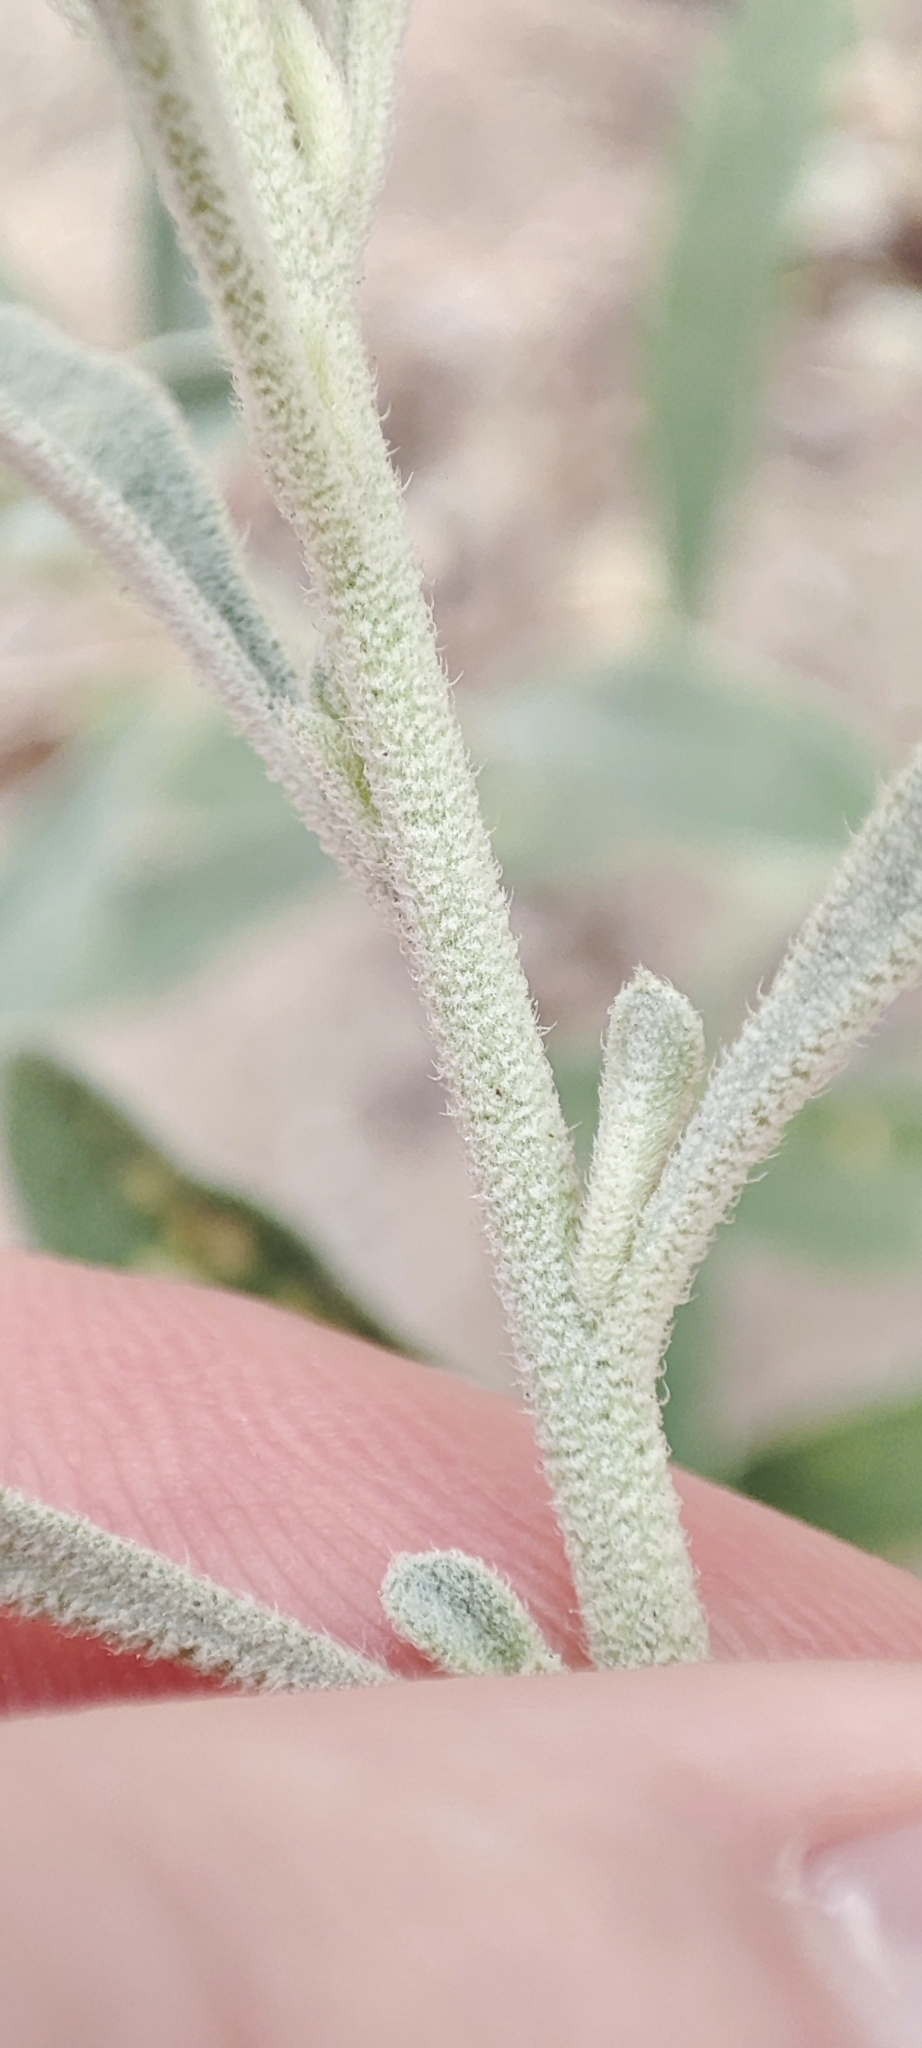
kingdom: Plantae
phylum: Tracheophyta
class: Magnoliopsida
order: Caryophyllales
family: Amaranthaceae
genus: Aerva
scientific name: Aerva javanica
